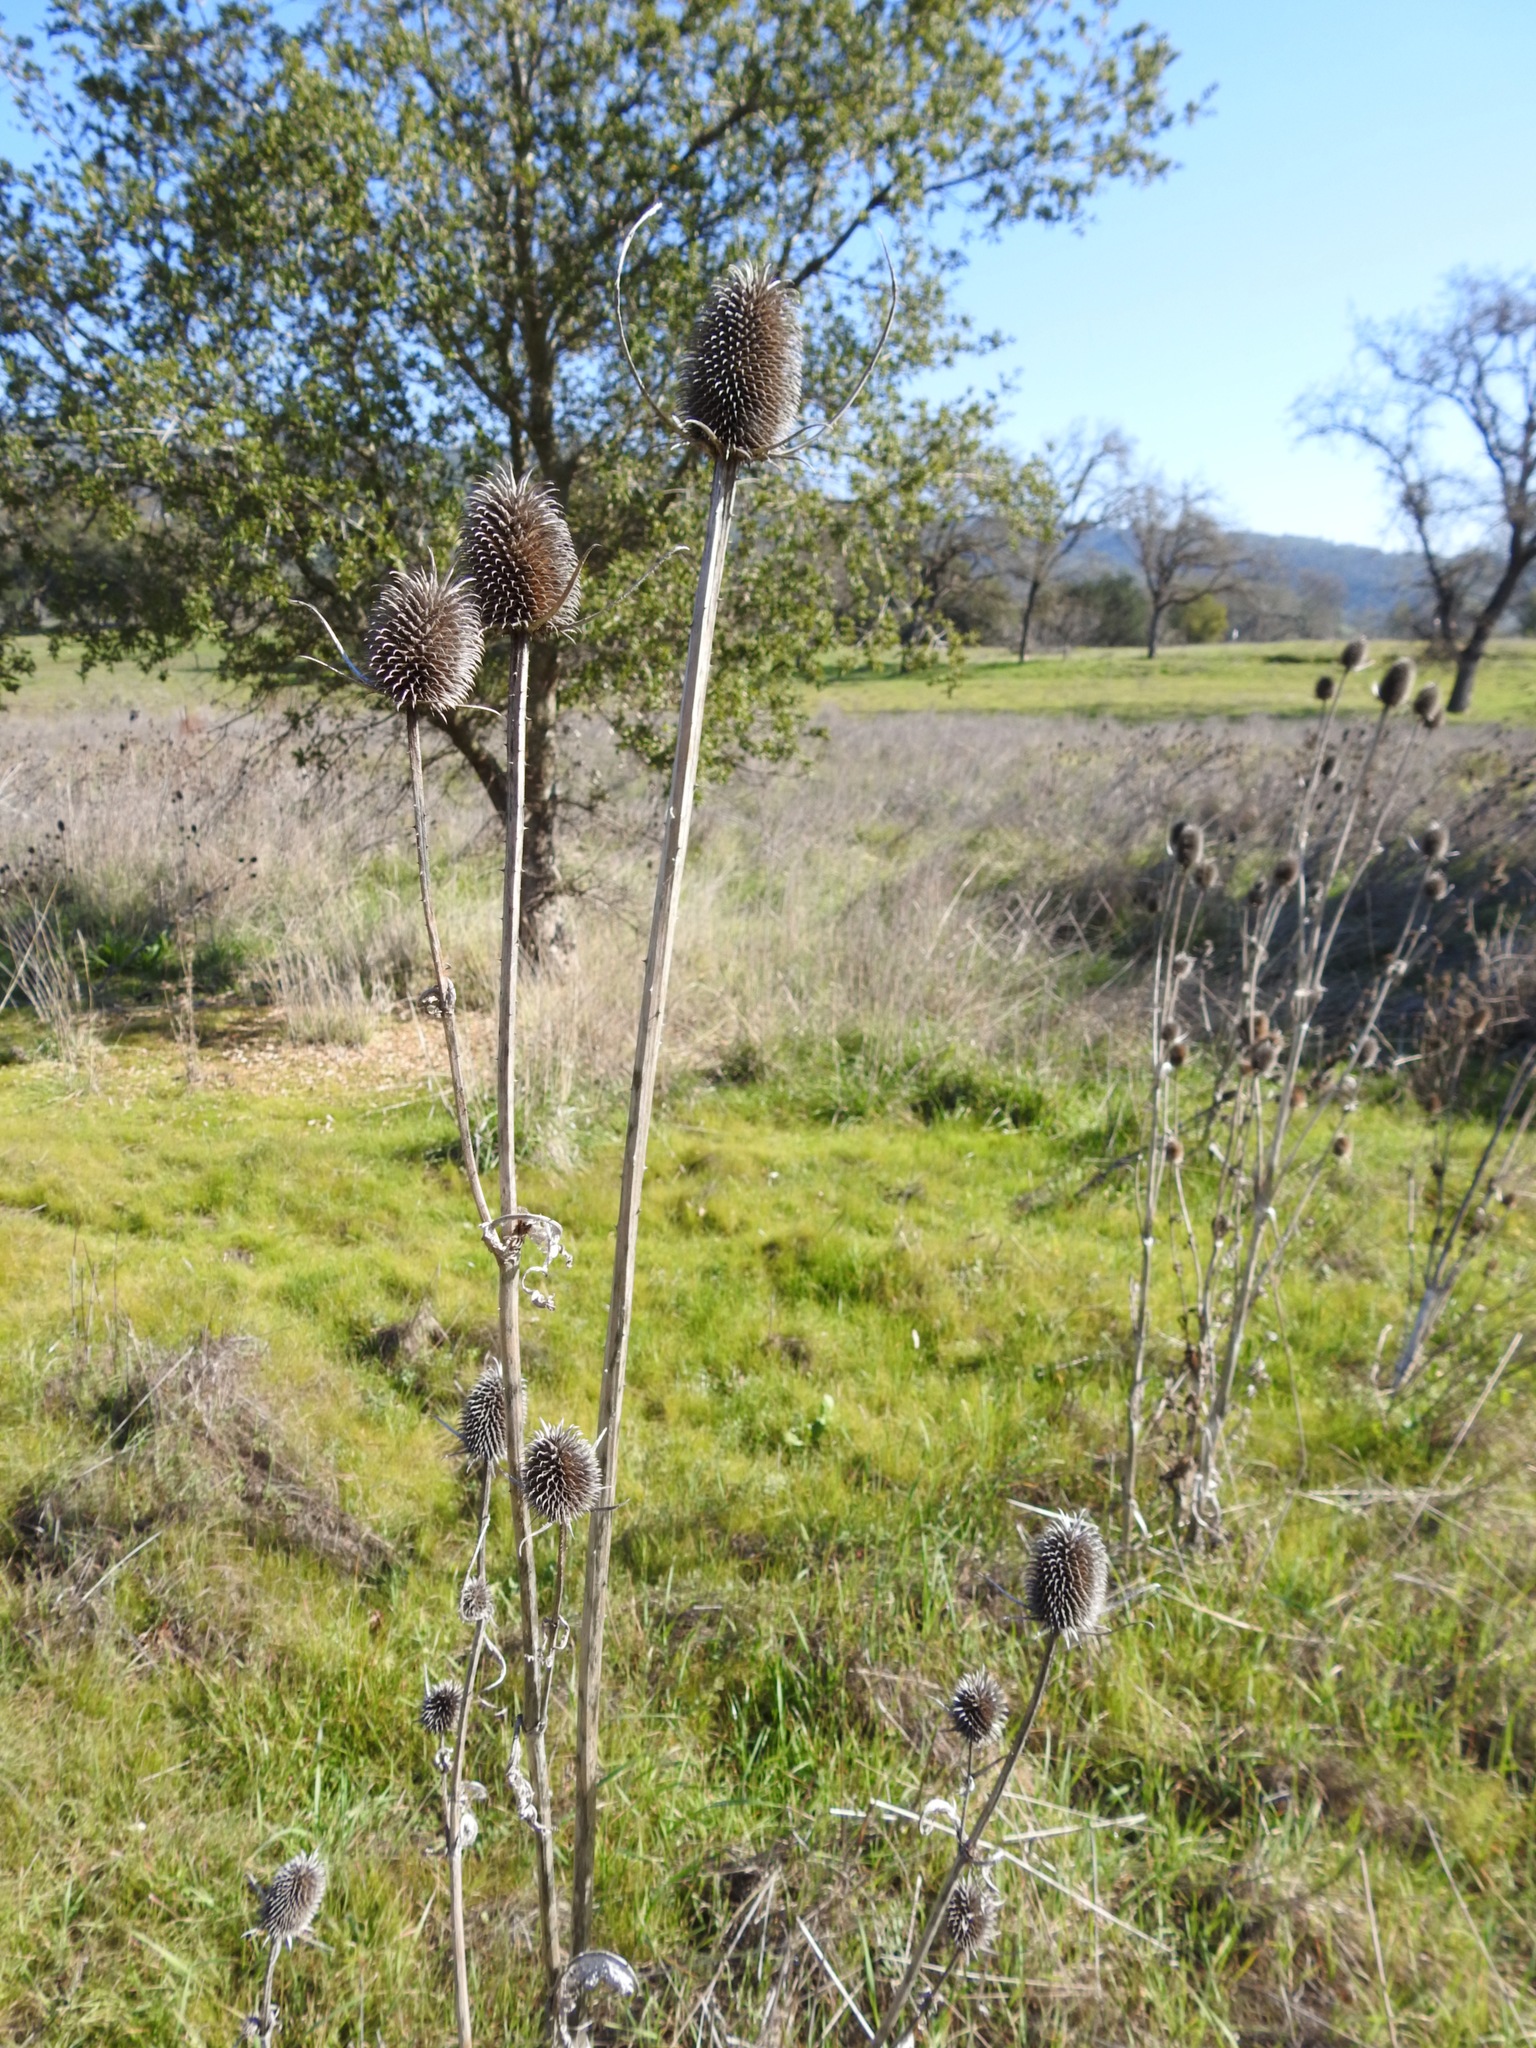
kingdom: Plantae
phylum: Tracheophyta
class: Magnoliopsida
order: Dipsacales
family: Caprifoliaceae
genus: Dipsacus
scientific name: Dipsacus sativus
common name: Fuller's teasel
